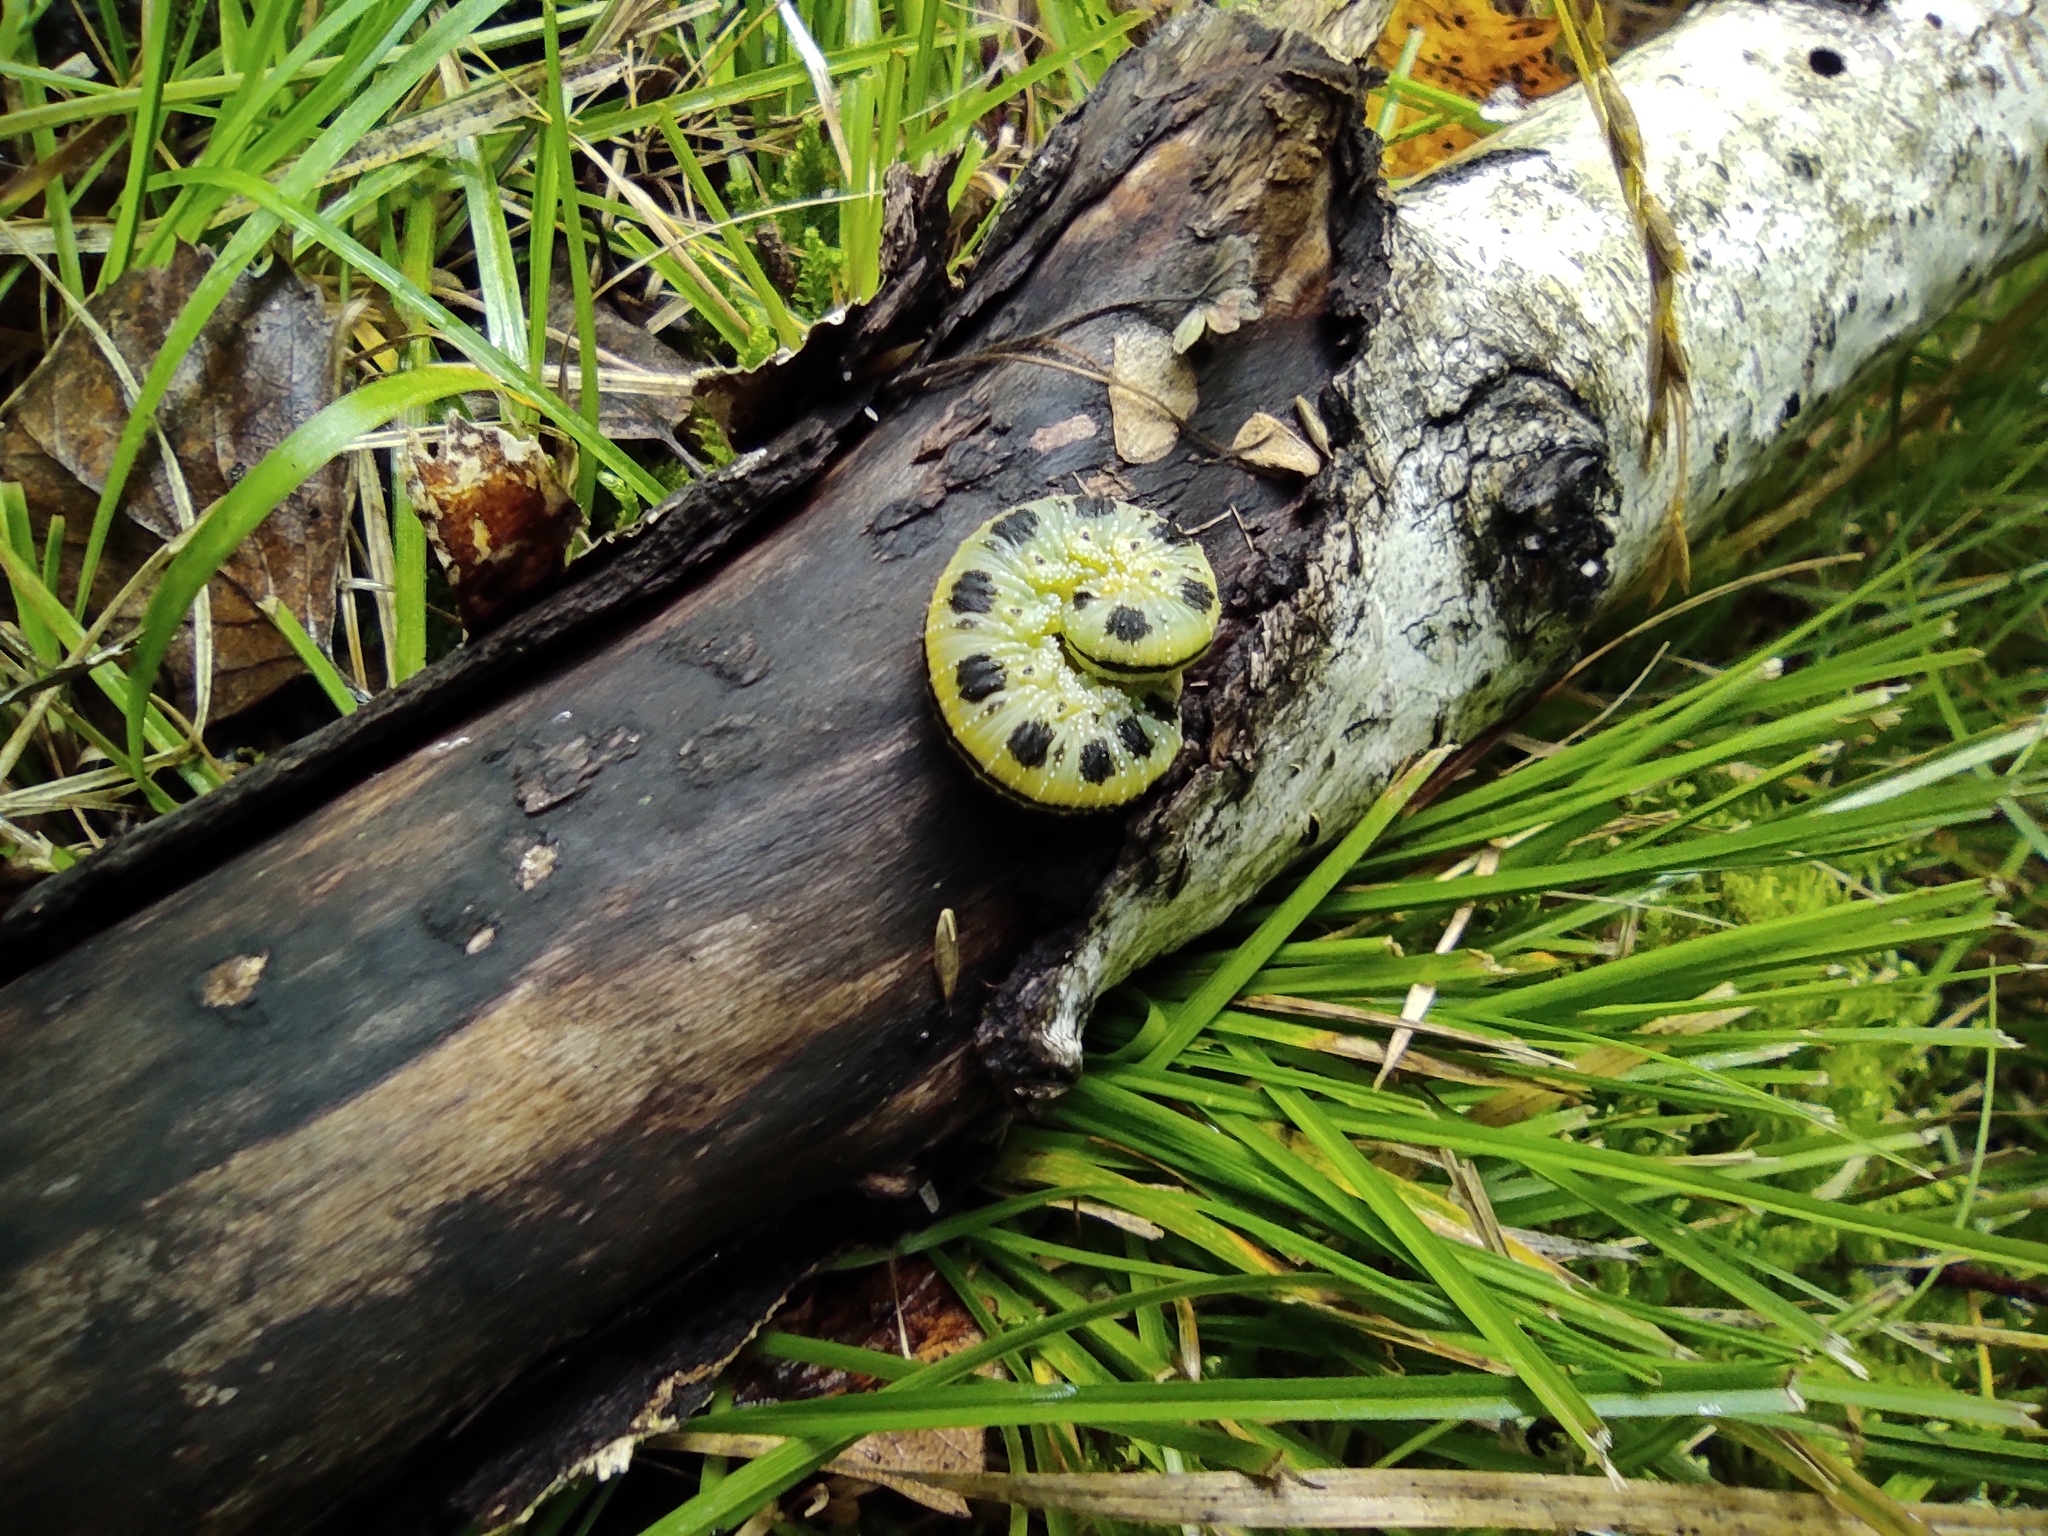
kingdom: Animalia
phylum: Arthropoda
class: Insecta
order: Hymenoptera
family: Cimbicidae
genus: Cimbex
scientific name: Cimbex femoratus
